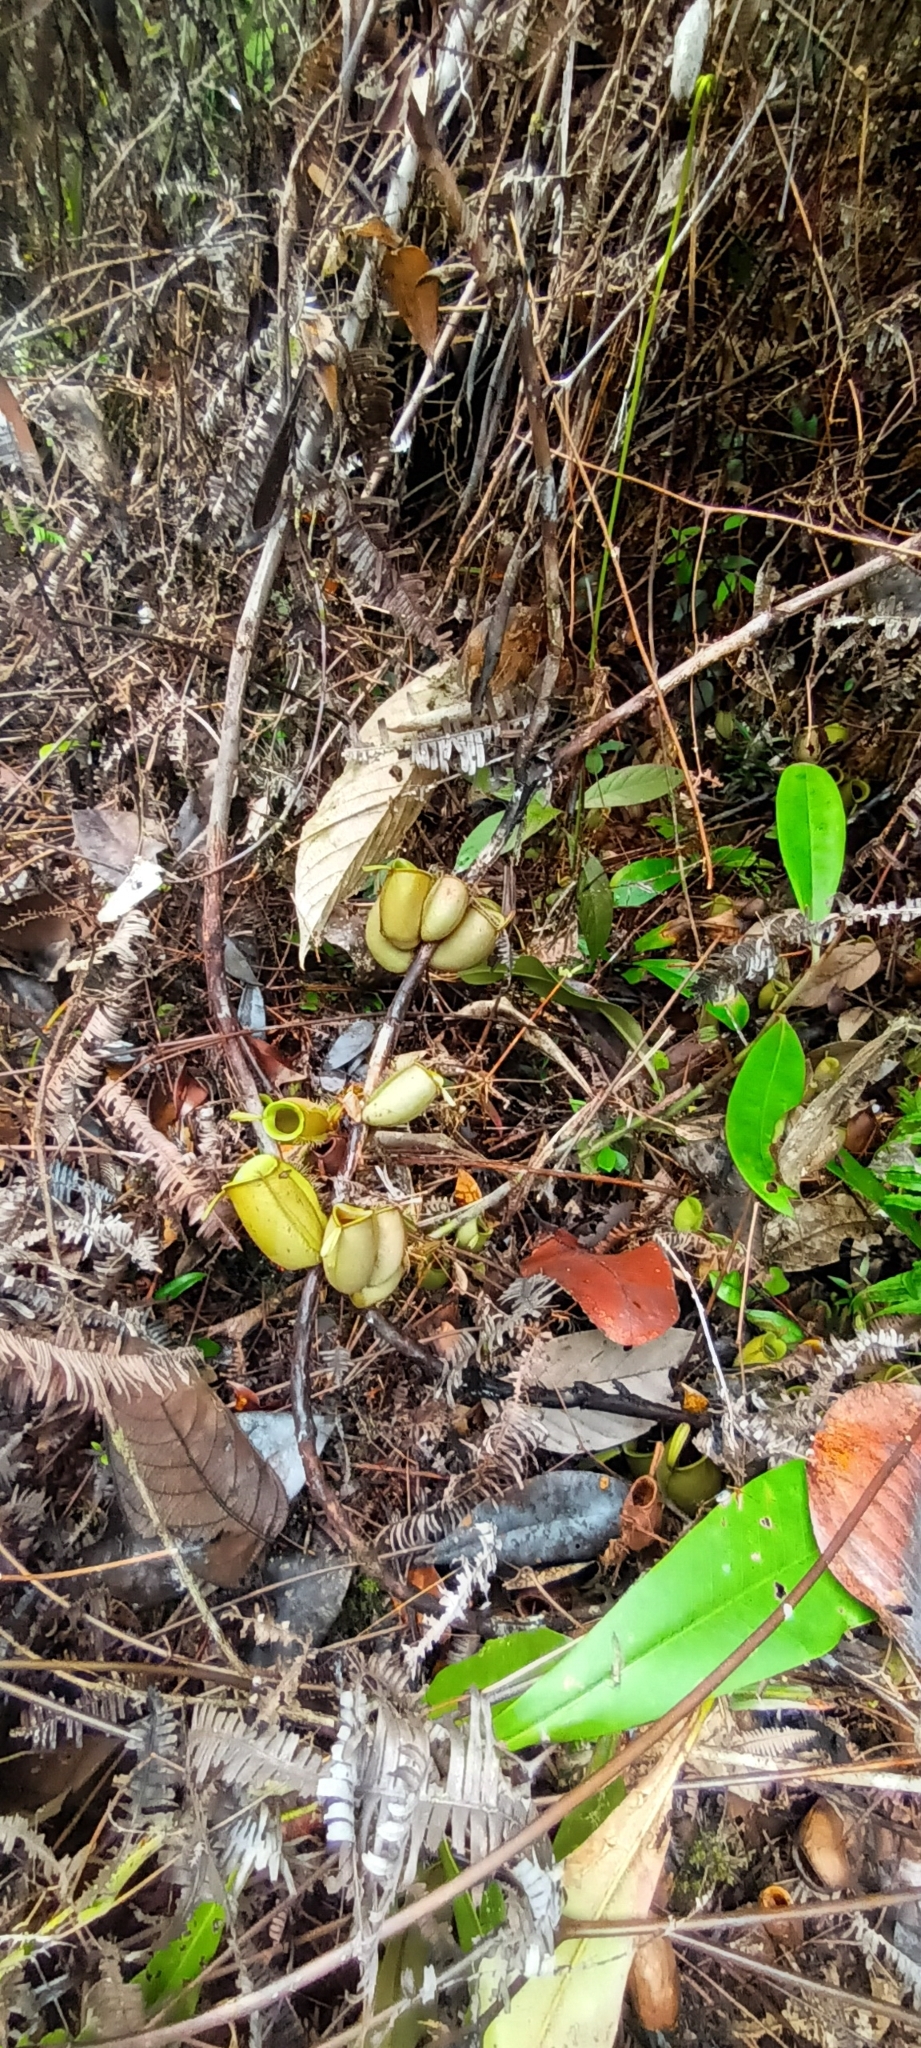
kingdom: Plantae
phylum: Tracheophyta
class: Magnoliopsida
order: Caryophyllales
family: Nepenthaceae
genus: Nepenthes
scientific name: Nepenthes ampullaria
